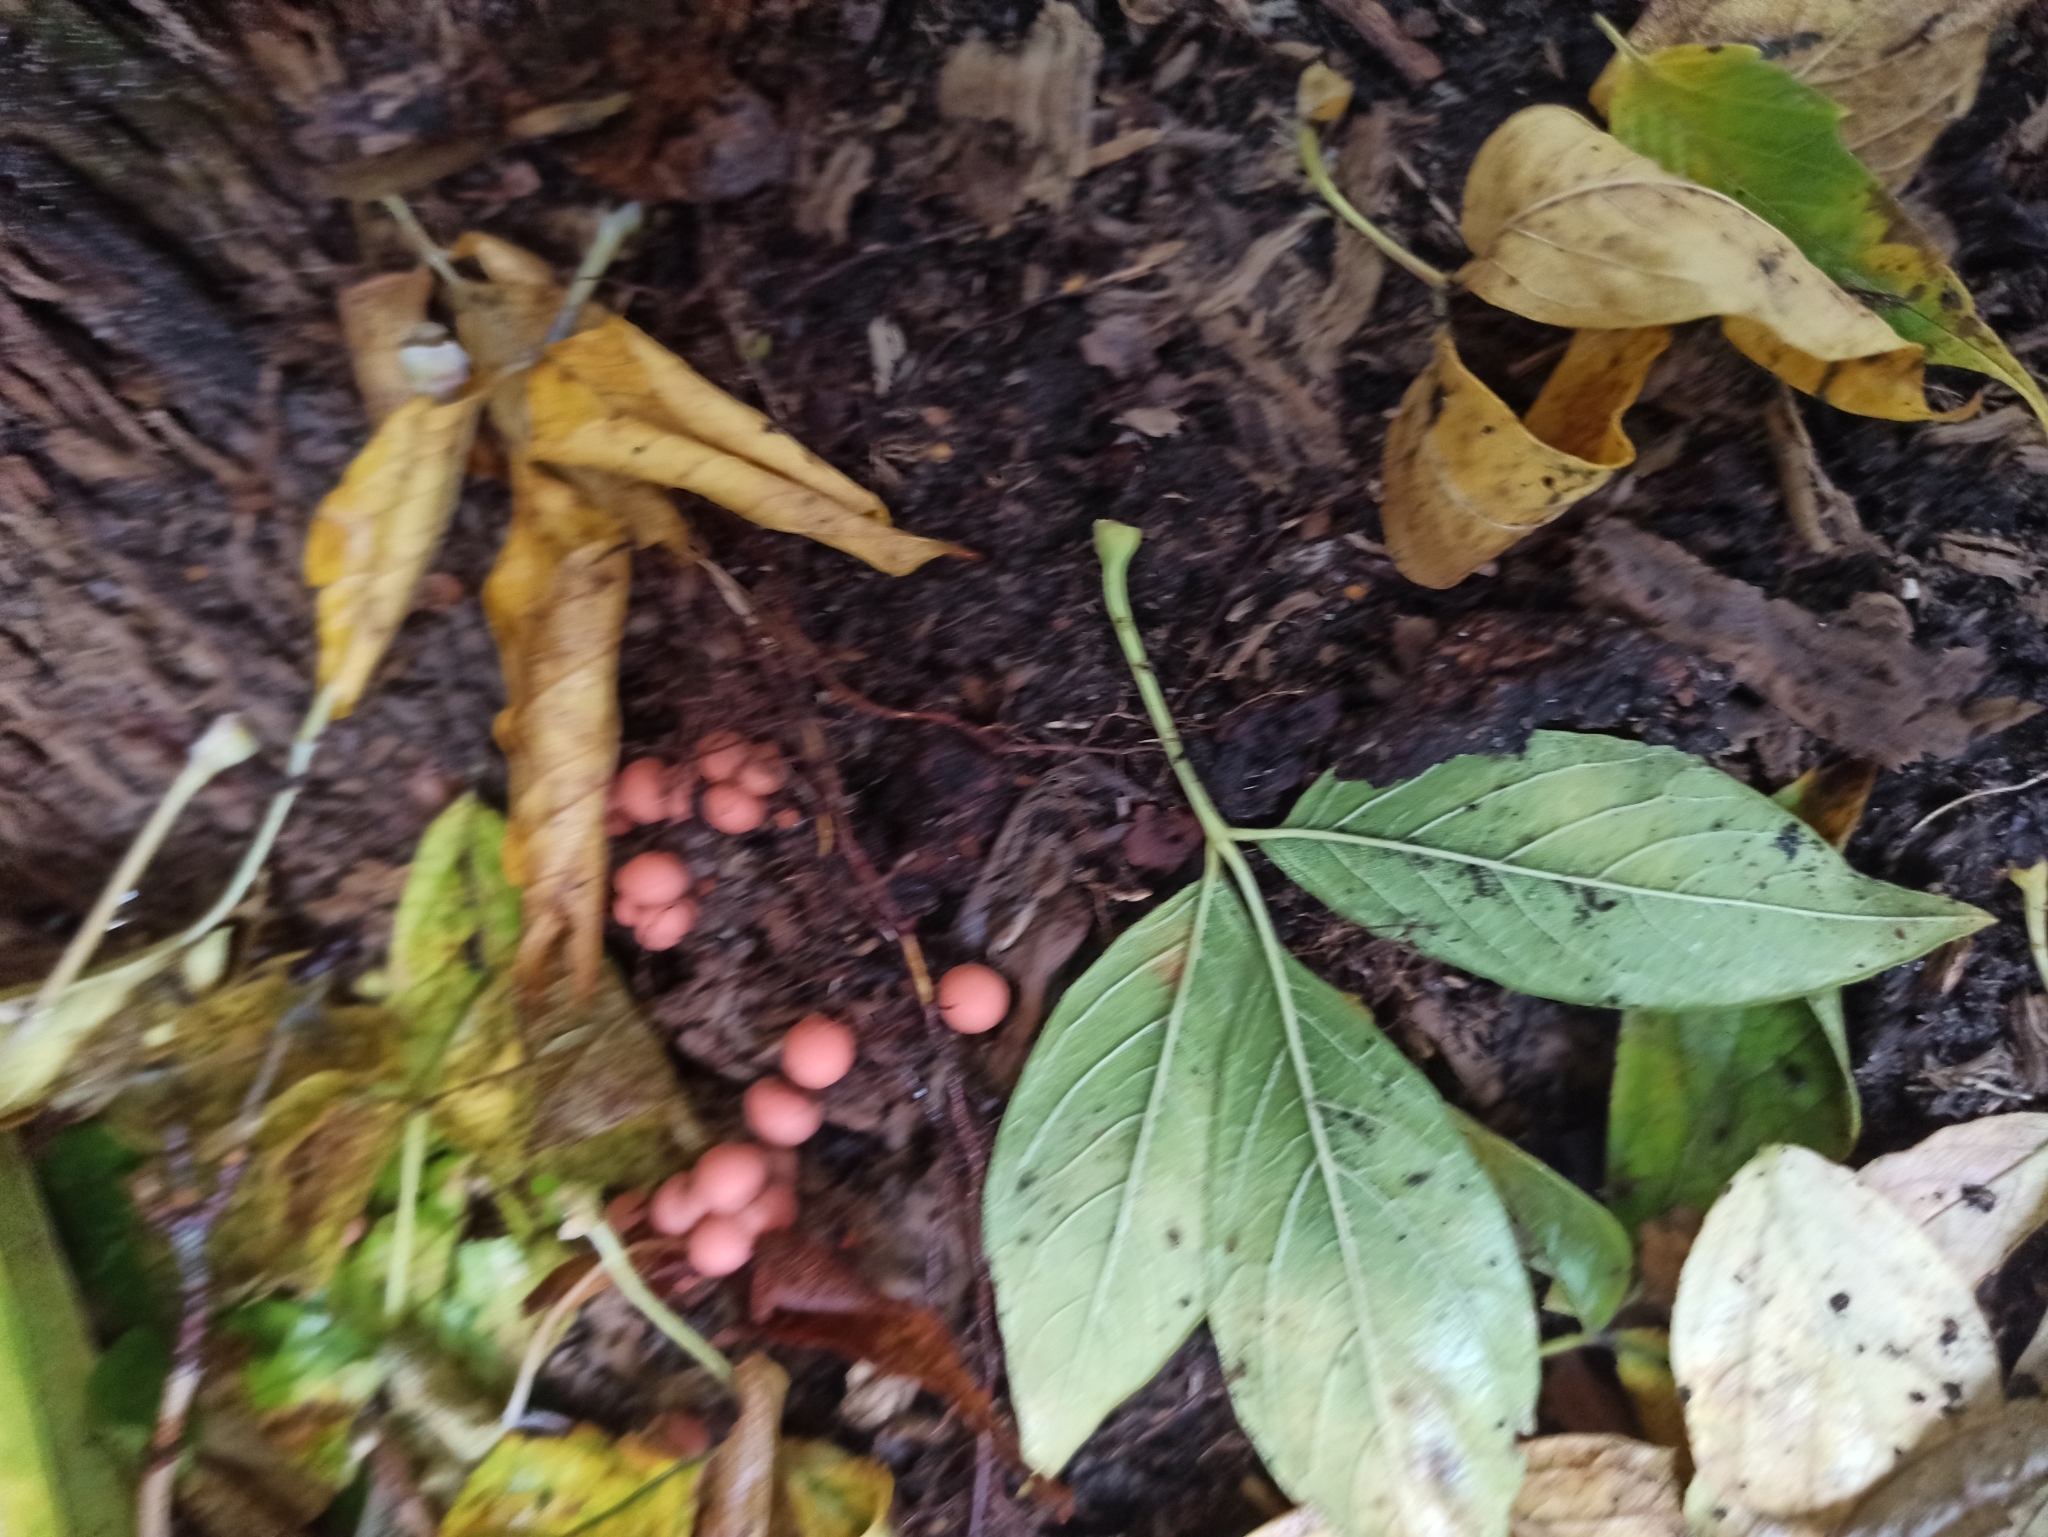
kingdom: Protozoa
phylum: Mycetozoa
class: Myxomycetes
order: Cribrariales
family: Tubiferaceae
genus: Lycogala
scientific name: Lycogala epidendrum
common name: Wolf's milk
